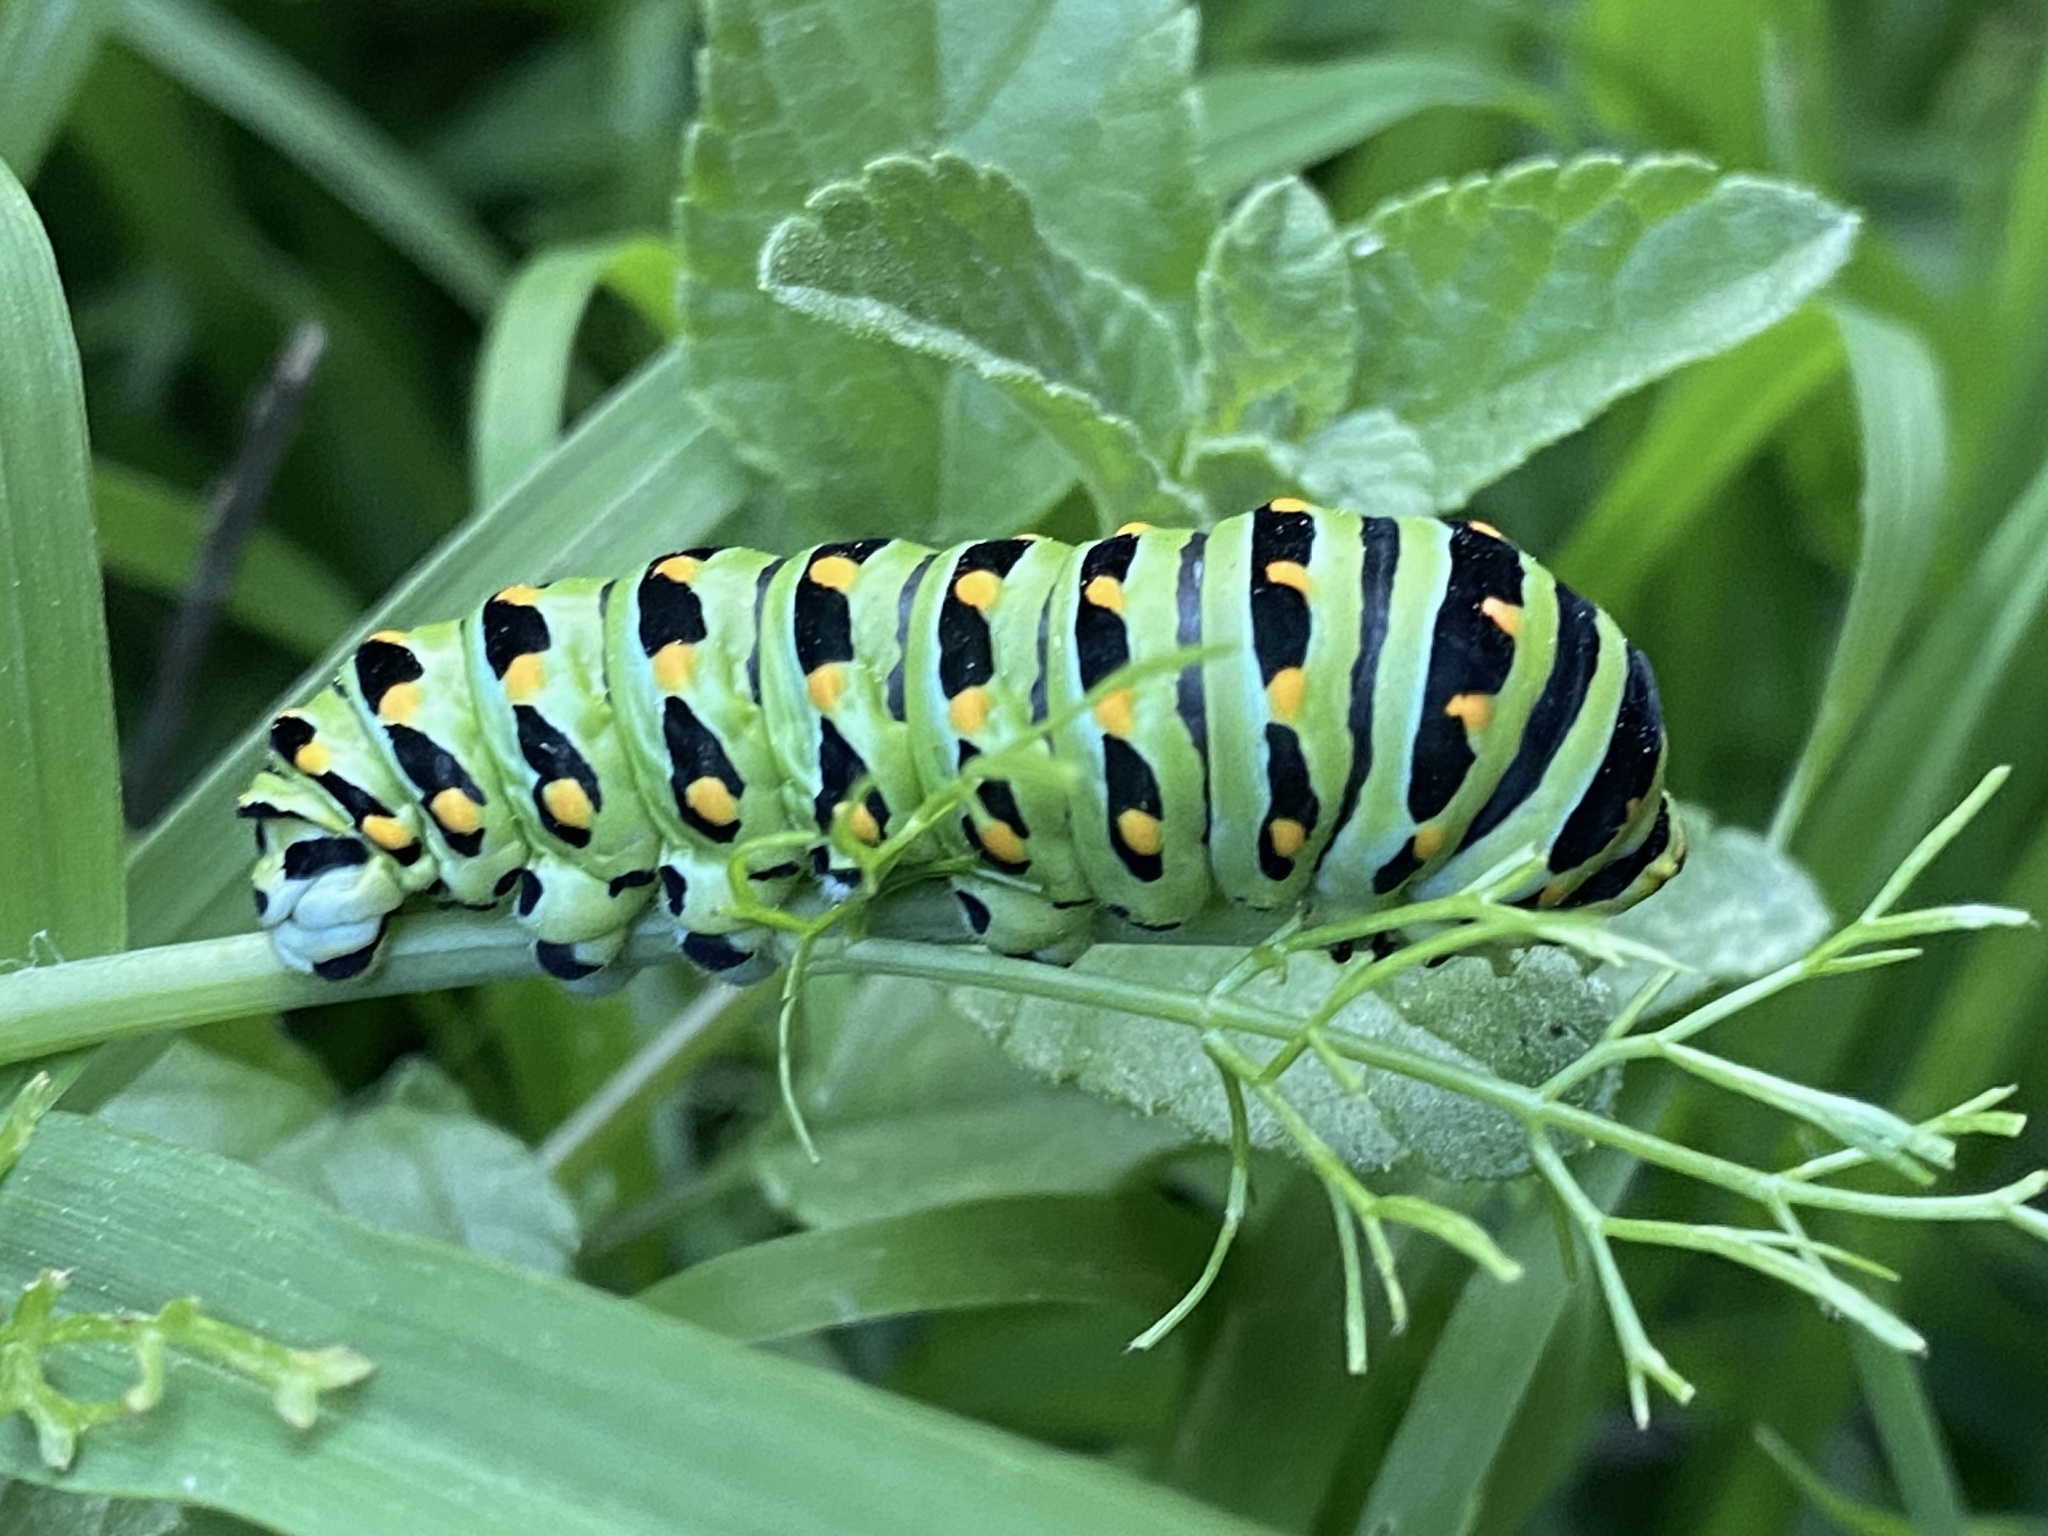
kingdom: Animalia
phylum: Arthropoda
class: Insecta
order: Lepidoptera
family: Papilionidae
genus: Papilio
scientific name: Papilio zelicaon
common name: Anise swallowtail
